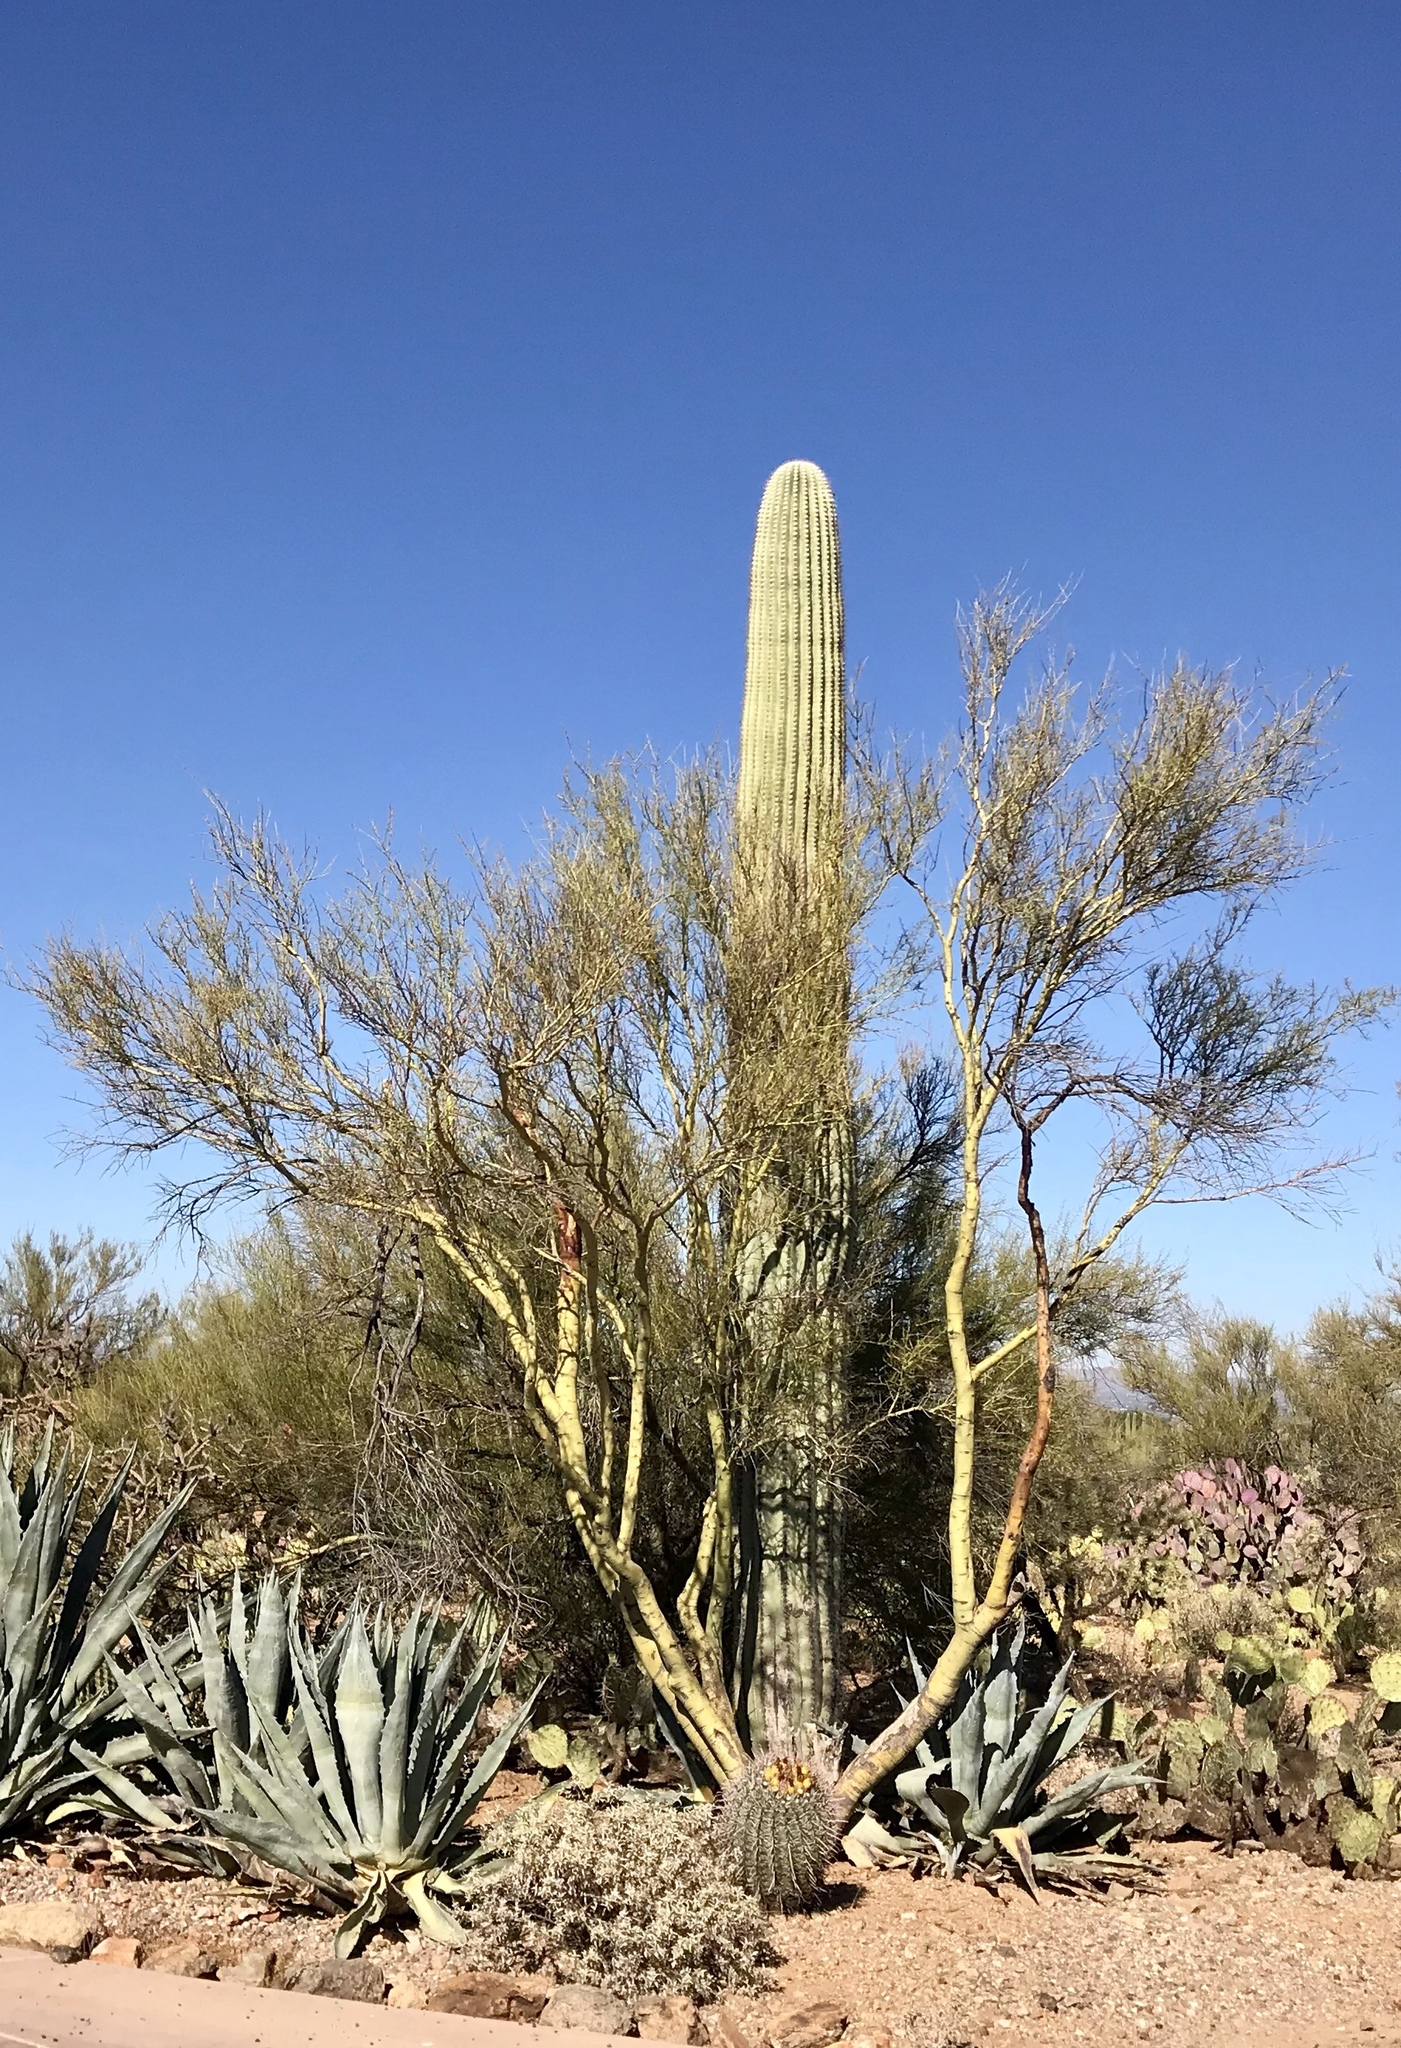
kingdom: Plantae
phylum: Tracheophyta
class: Magnoliopsida
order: Fabales
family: Fabaceae
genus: Parkinsonia
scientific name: Parkinsonia microphylla
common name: Yellow paloverde
